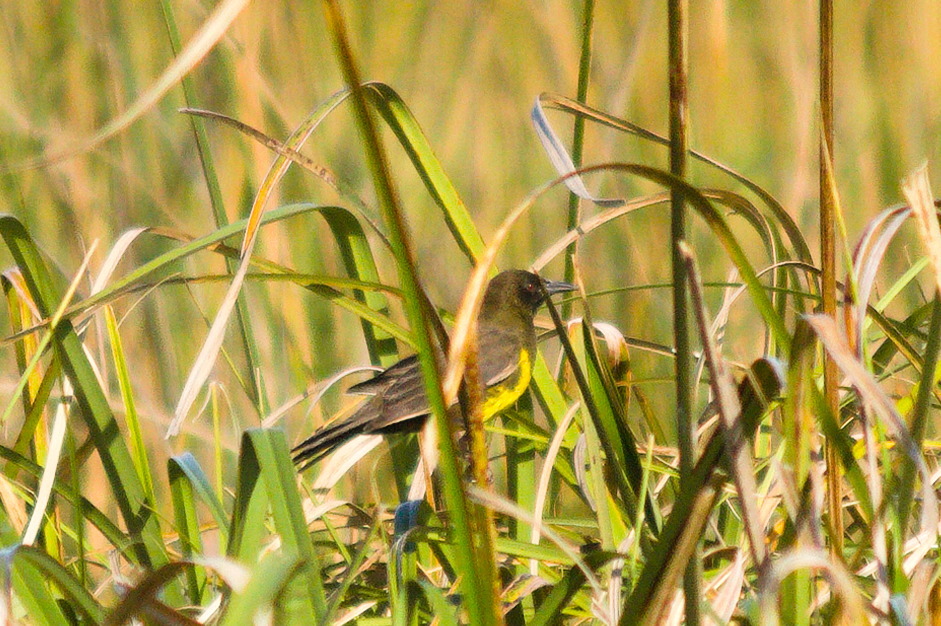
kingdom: Animalia
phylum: Chordata
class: Aves
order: Passeriformes
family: Icteridae
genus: Pseudoleistes
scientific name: Pseudoleistes virescens
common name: Brown-and-yellow marshbird
